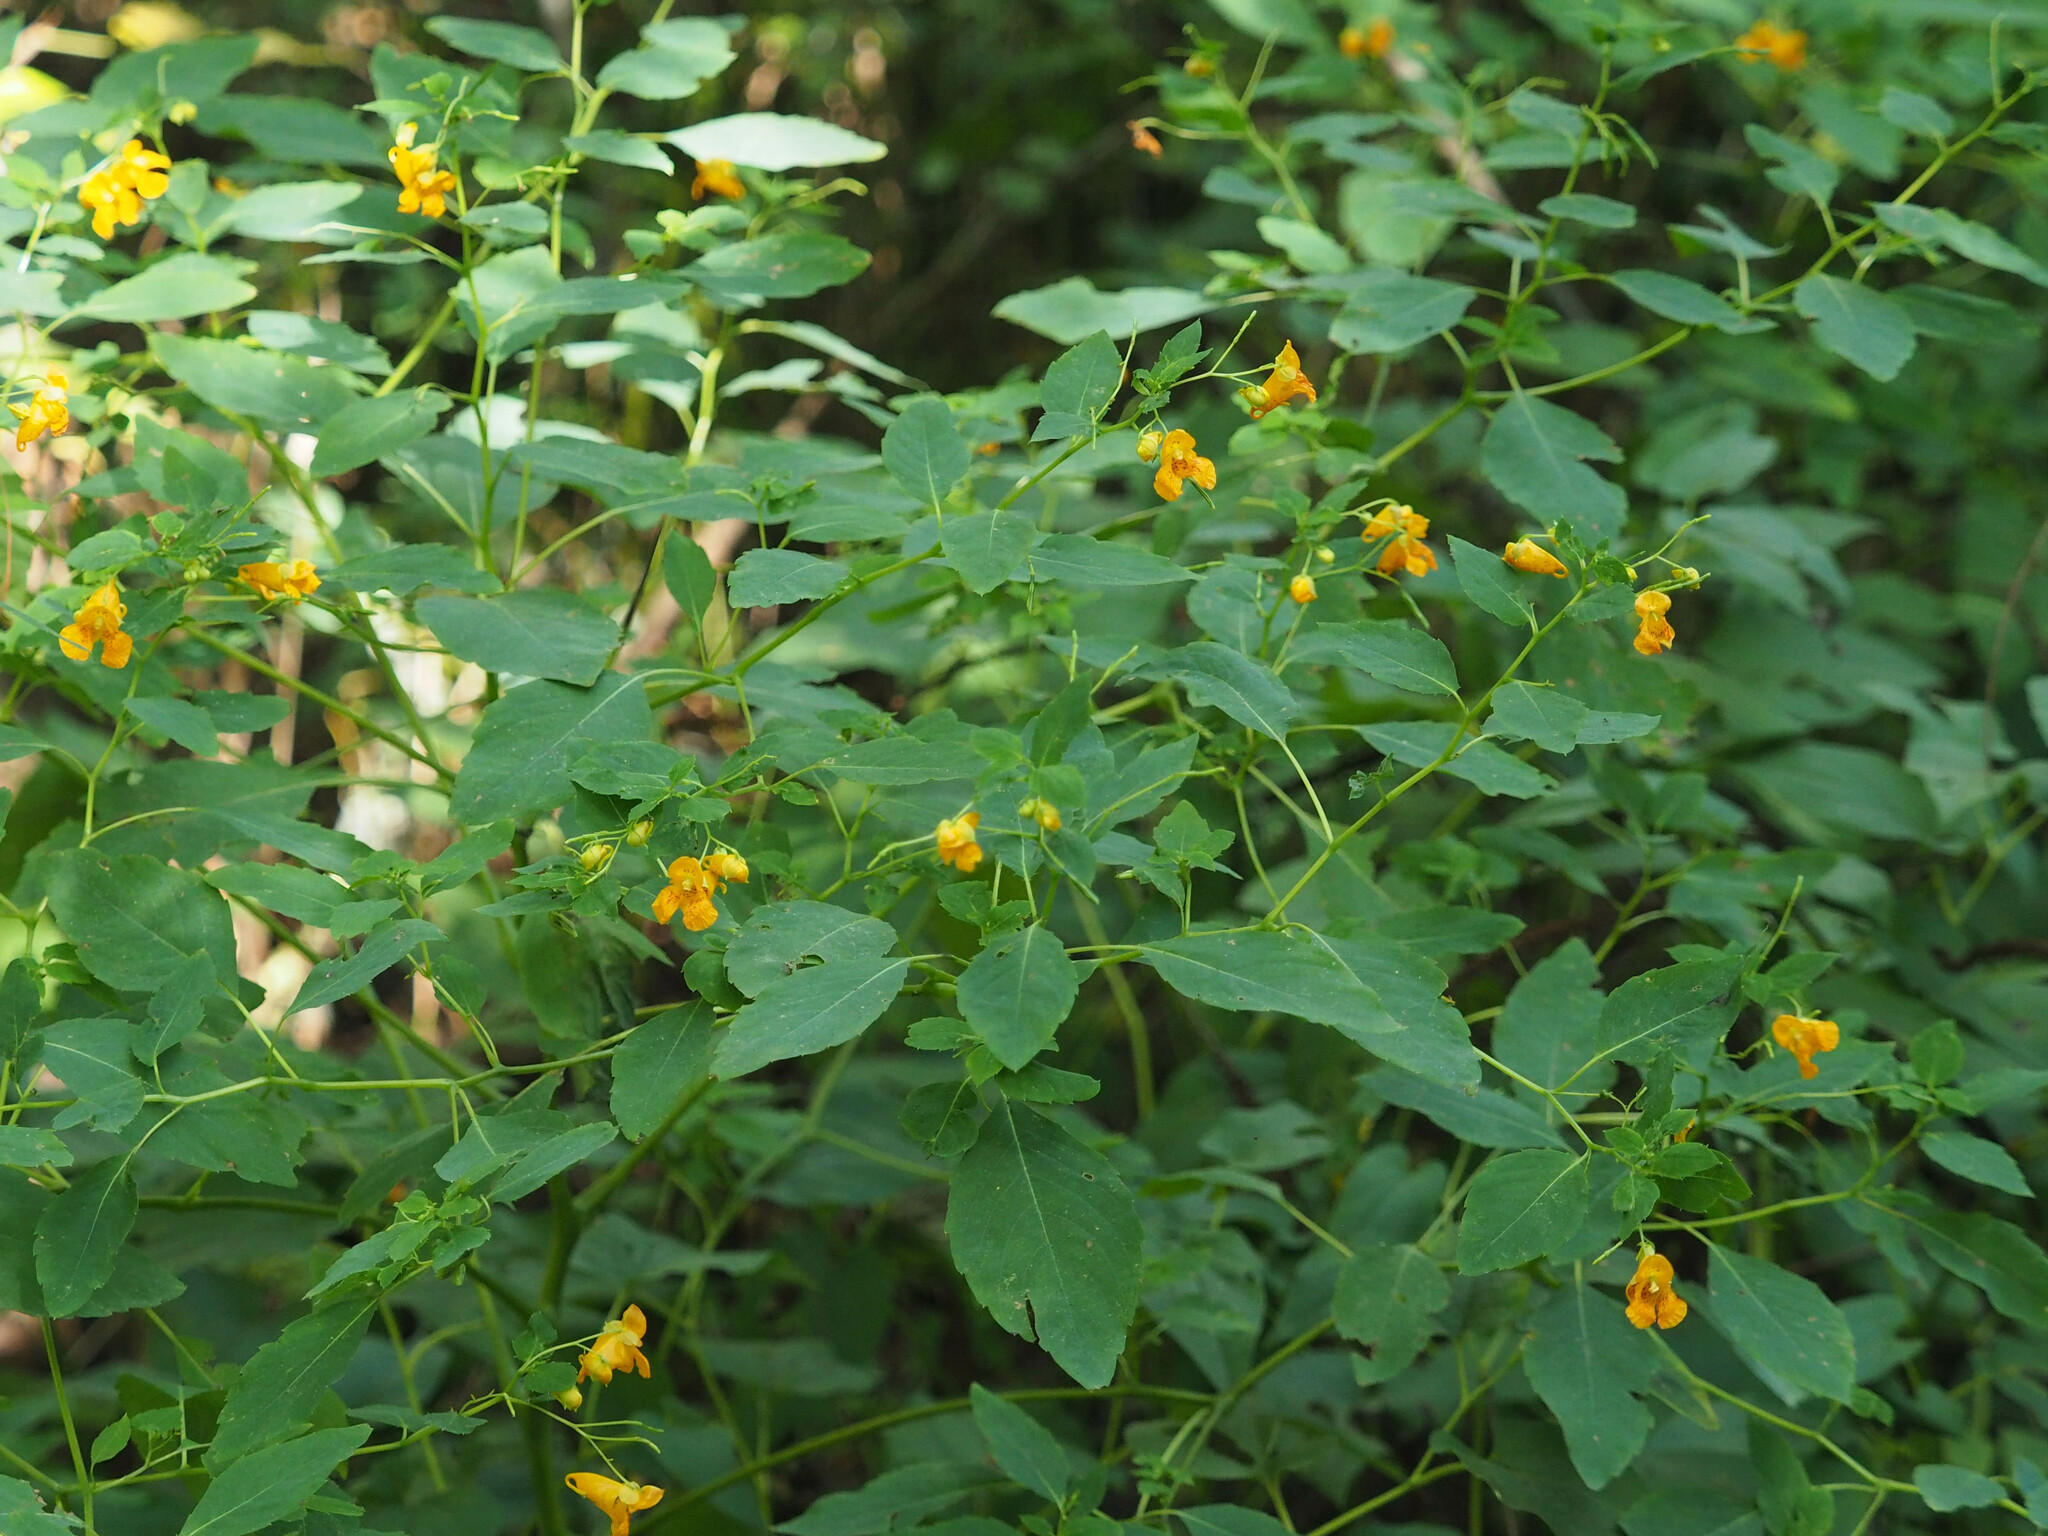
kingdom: Plantae
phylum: Tracheophyta
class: Magnoliopsida
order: Ericales
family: Balsaminaceae
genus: Impatiens
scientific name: Impatiens capensis
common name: Orange balsam
